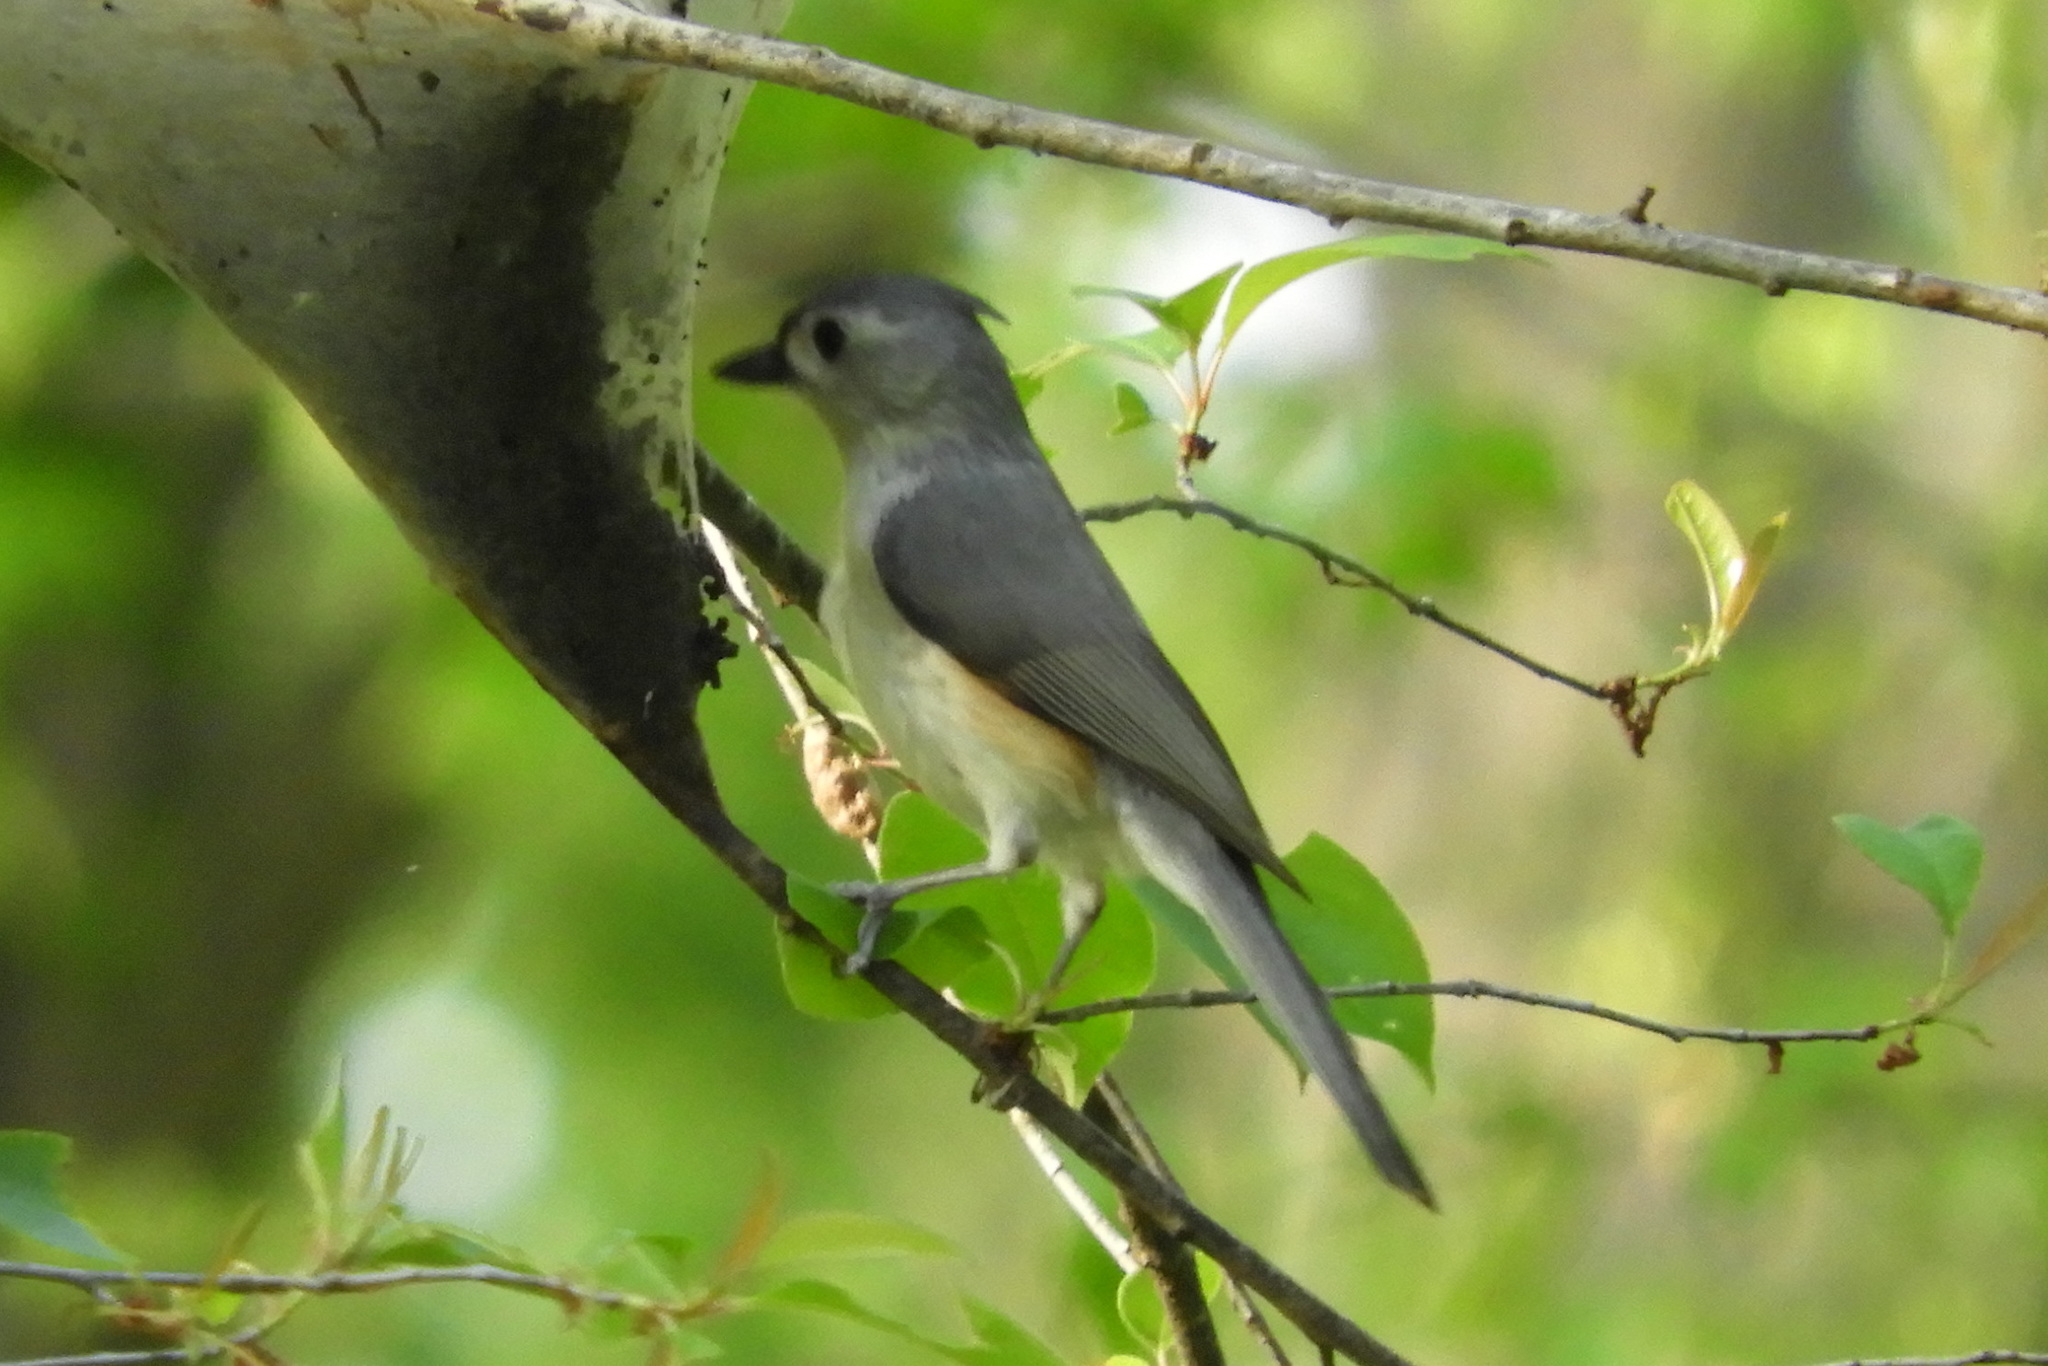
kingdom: Animalia
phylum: Chordata
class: Aves
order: Passeriformes
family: Paridae
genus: Baeolophus
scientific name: Baeolophus bicolor
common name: Tufted titmouse
